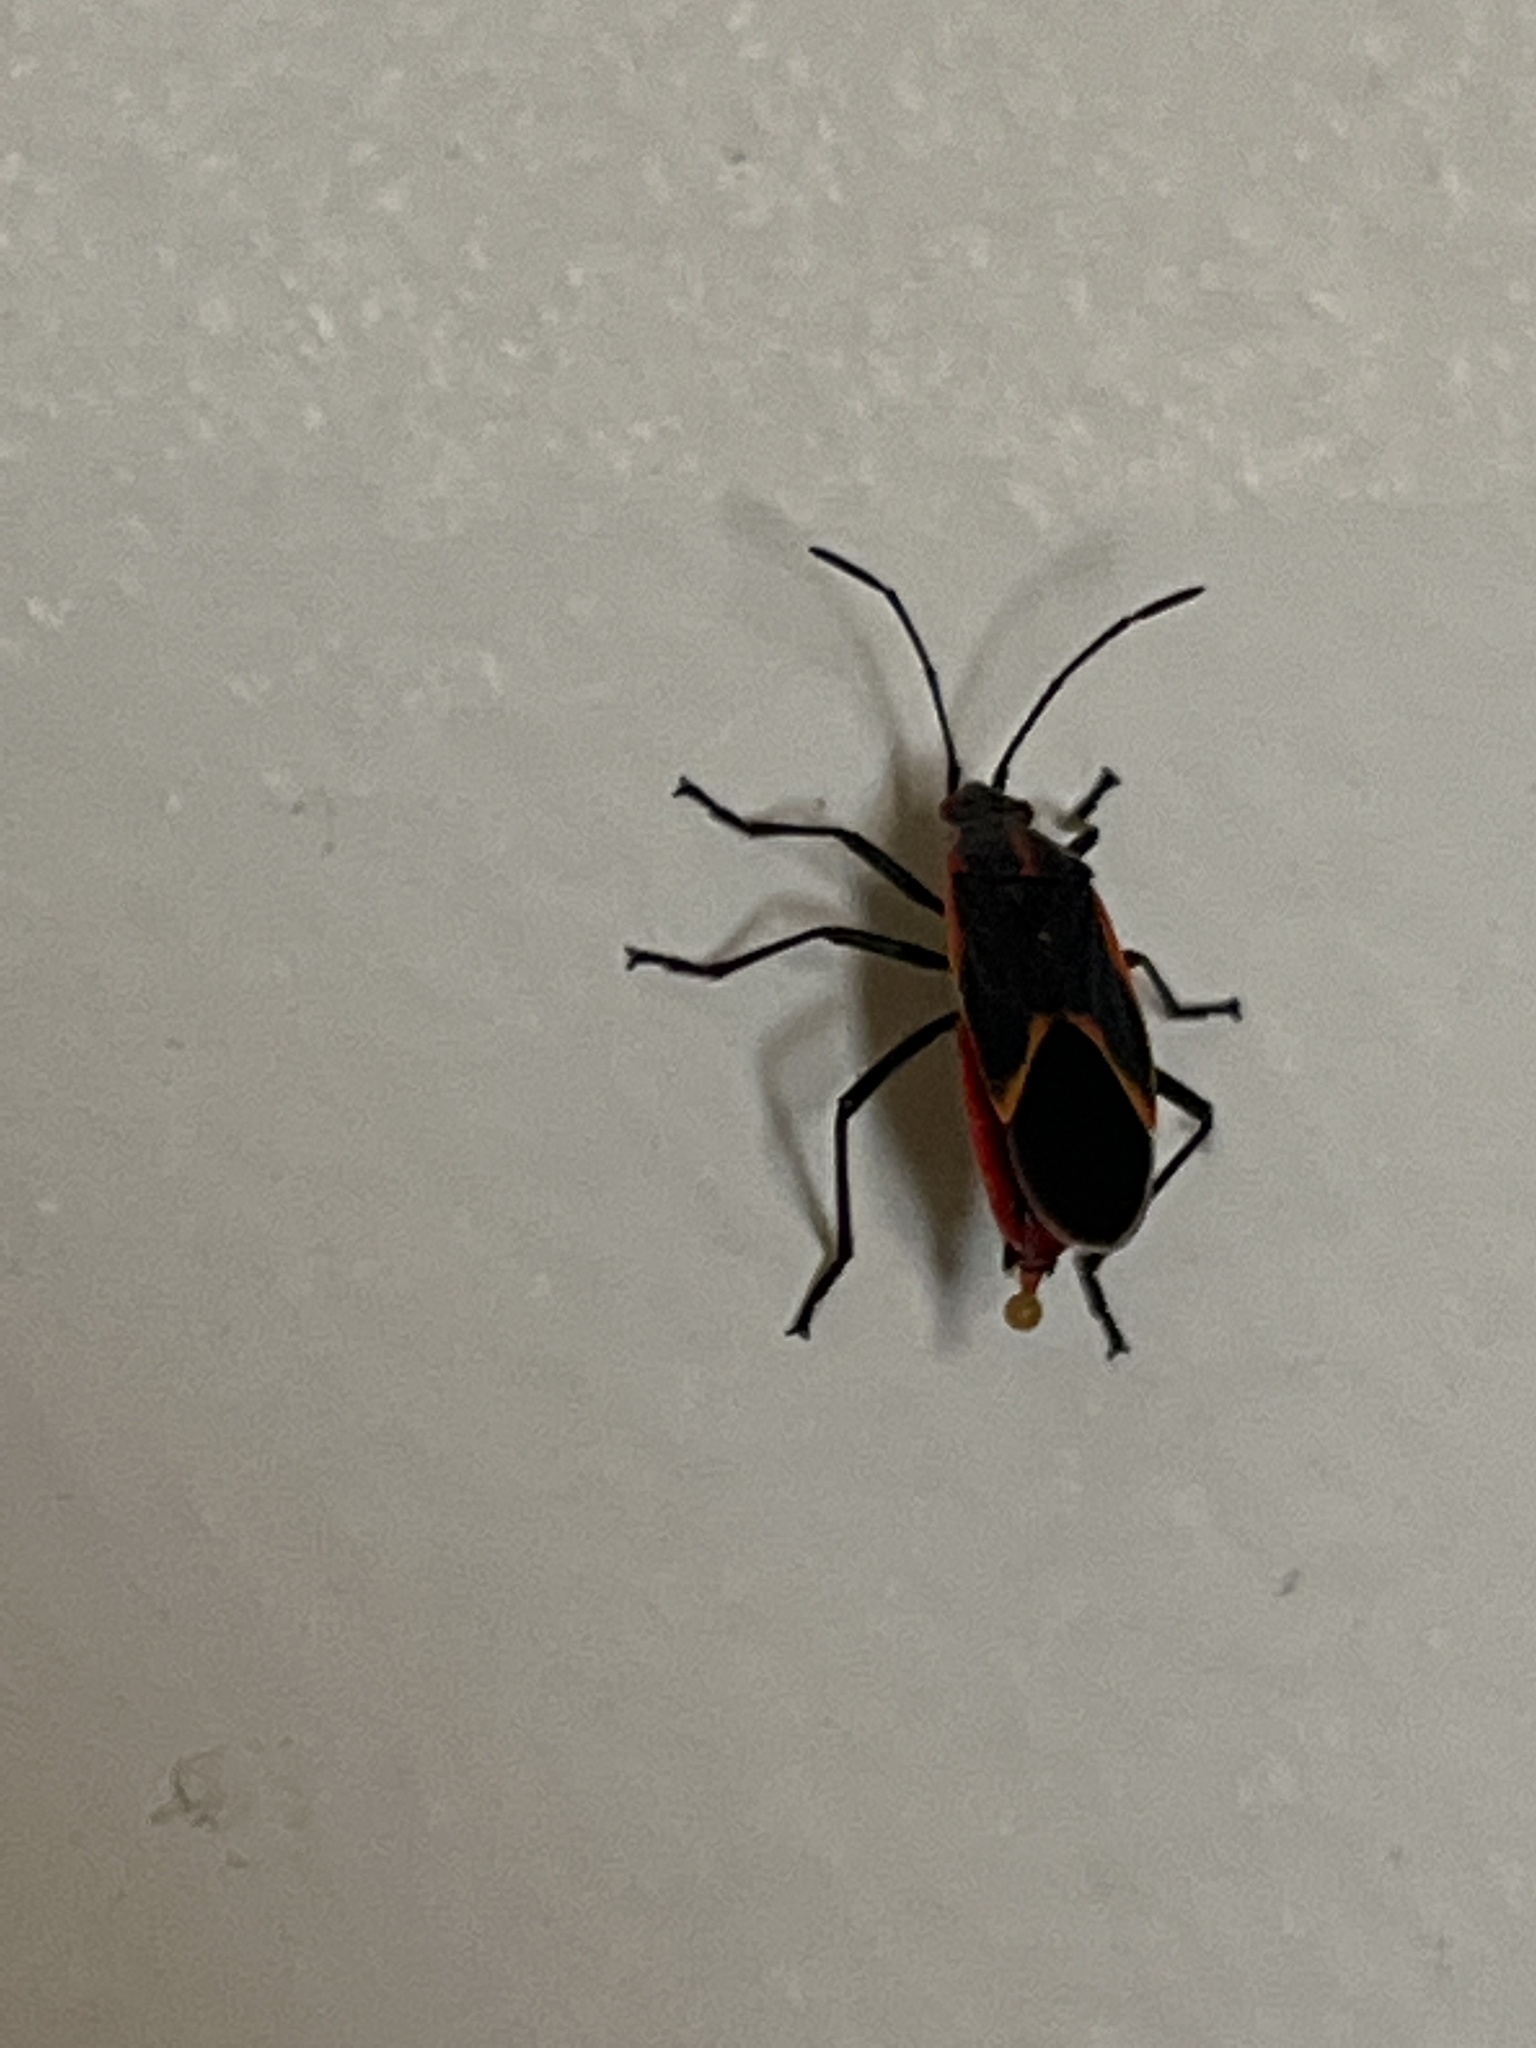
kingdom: Animalia
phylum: Arthropoda
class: Insecta
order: Hemiptera
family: Rhopalidae
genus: Boisea
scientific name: Boisea trivittata
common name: Boxelder bug
